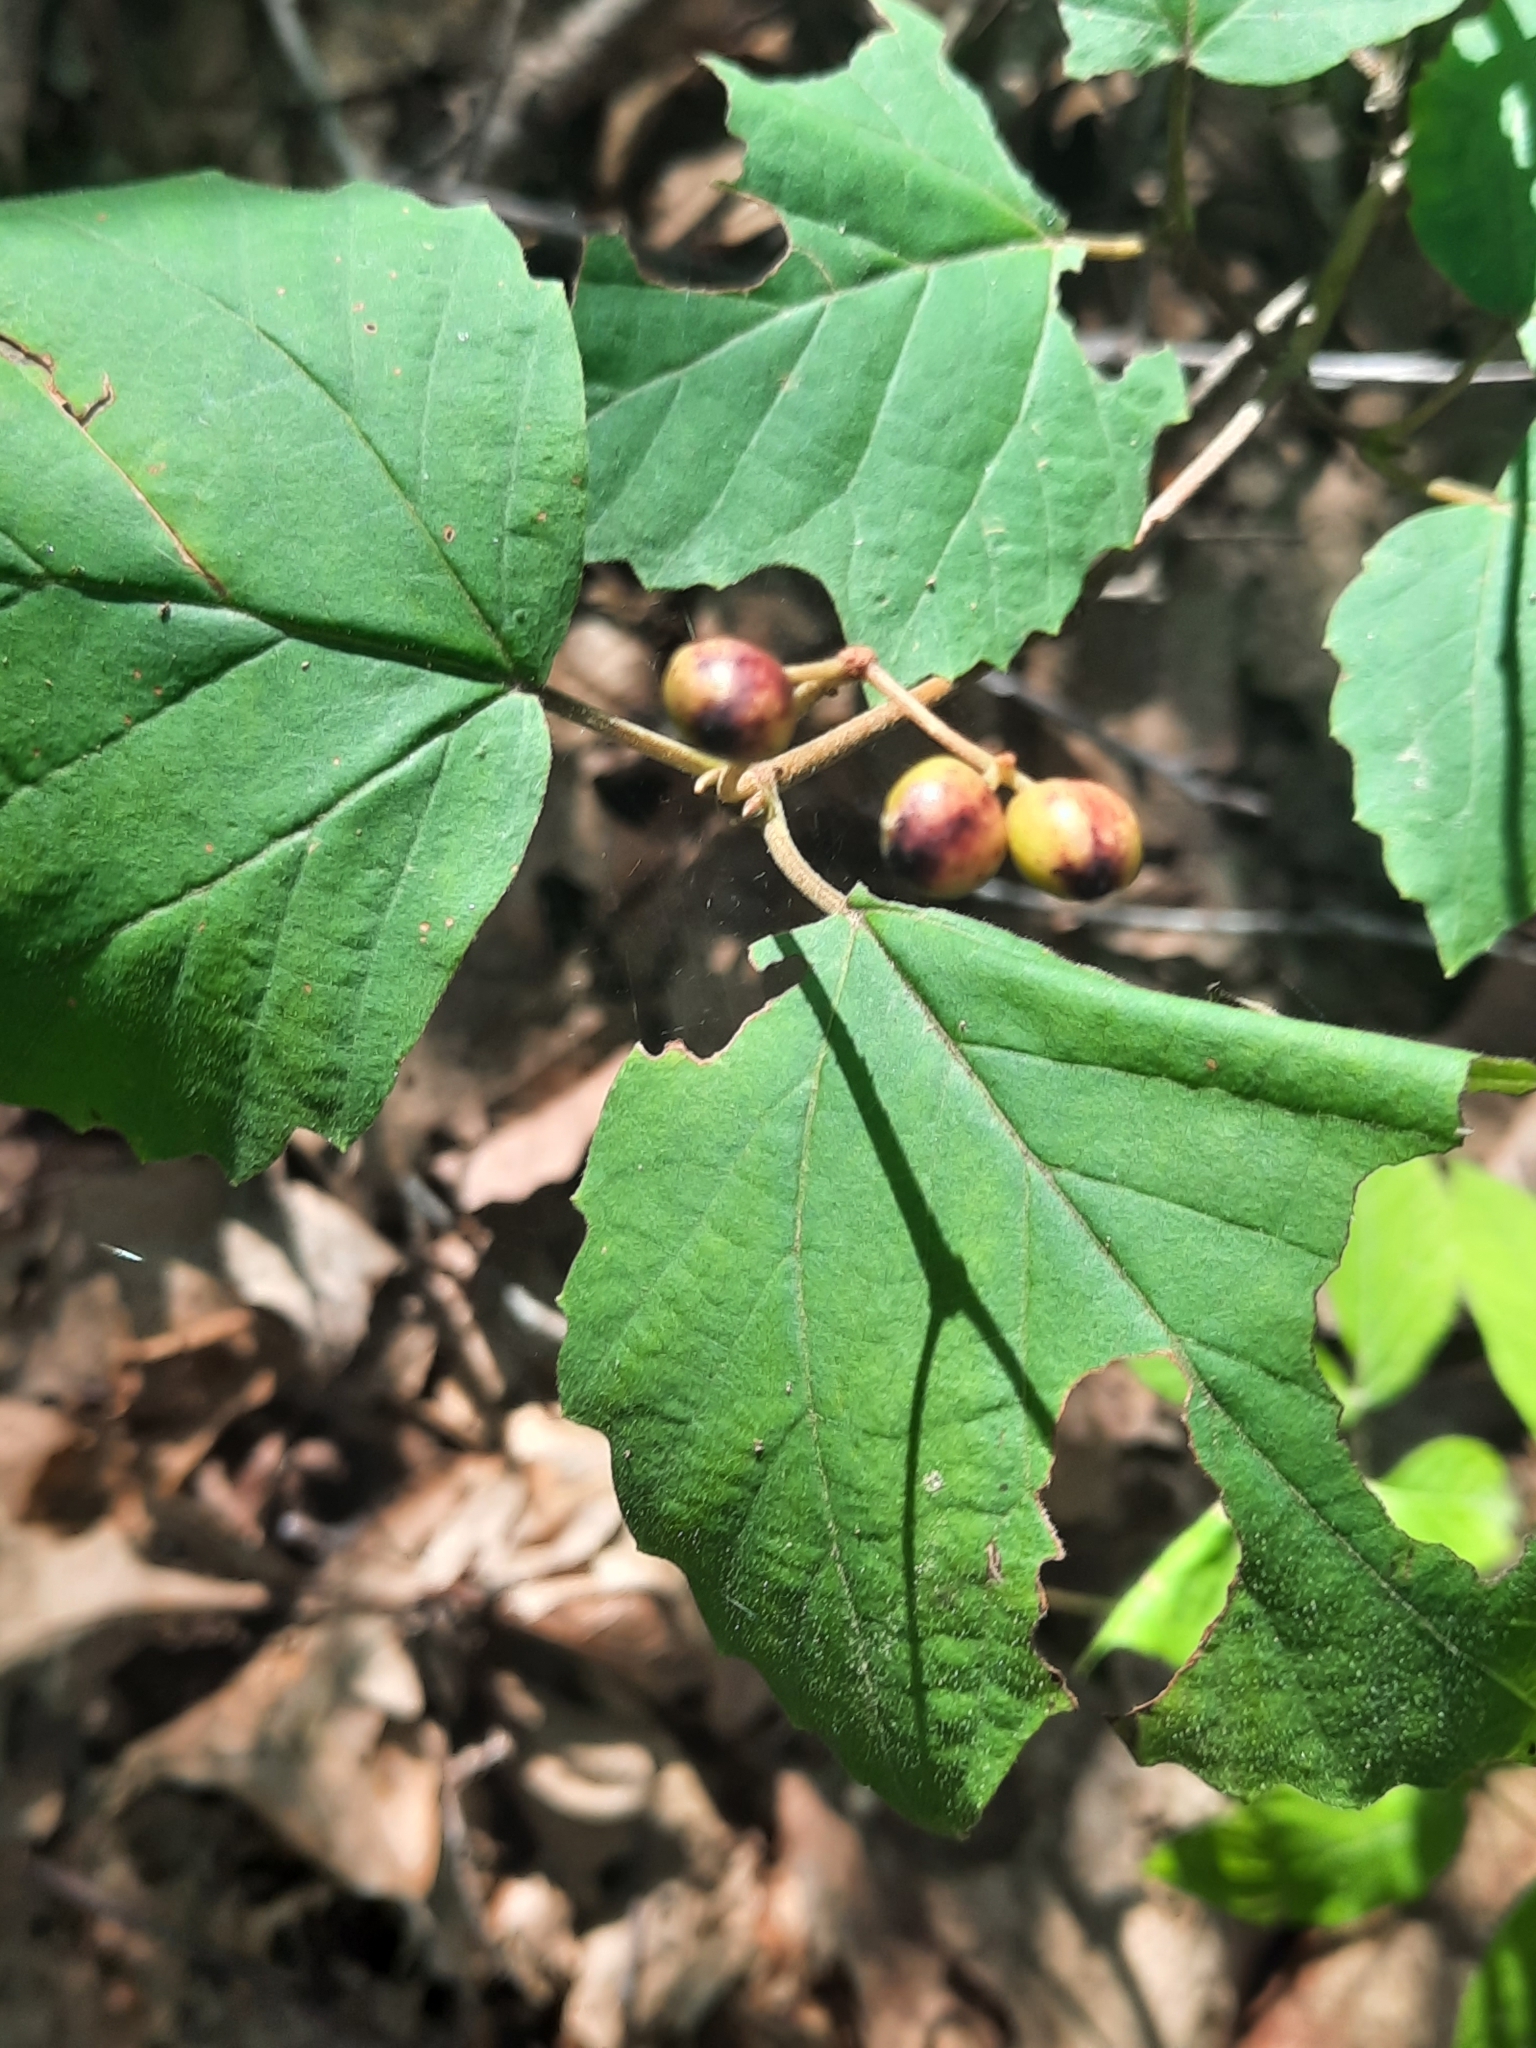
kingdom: Plantae
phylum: Tracheophyta
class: Magnoliopsida
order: Dipsacales
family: Viburnaceae
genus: Viburnum
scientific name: Viburnum acerifolium
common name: Dockmackie
